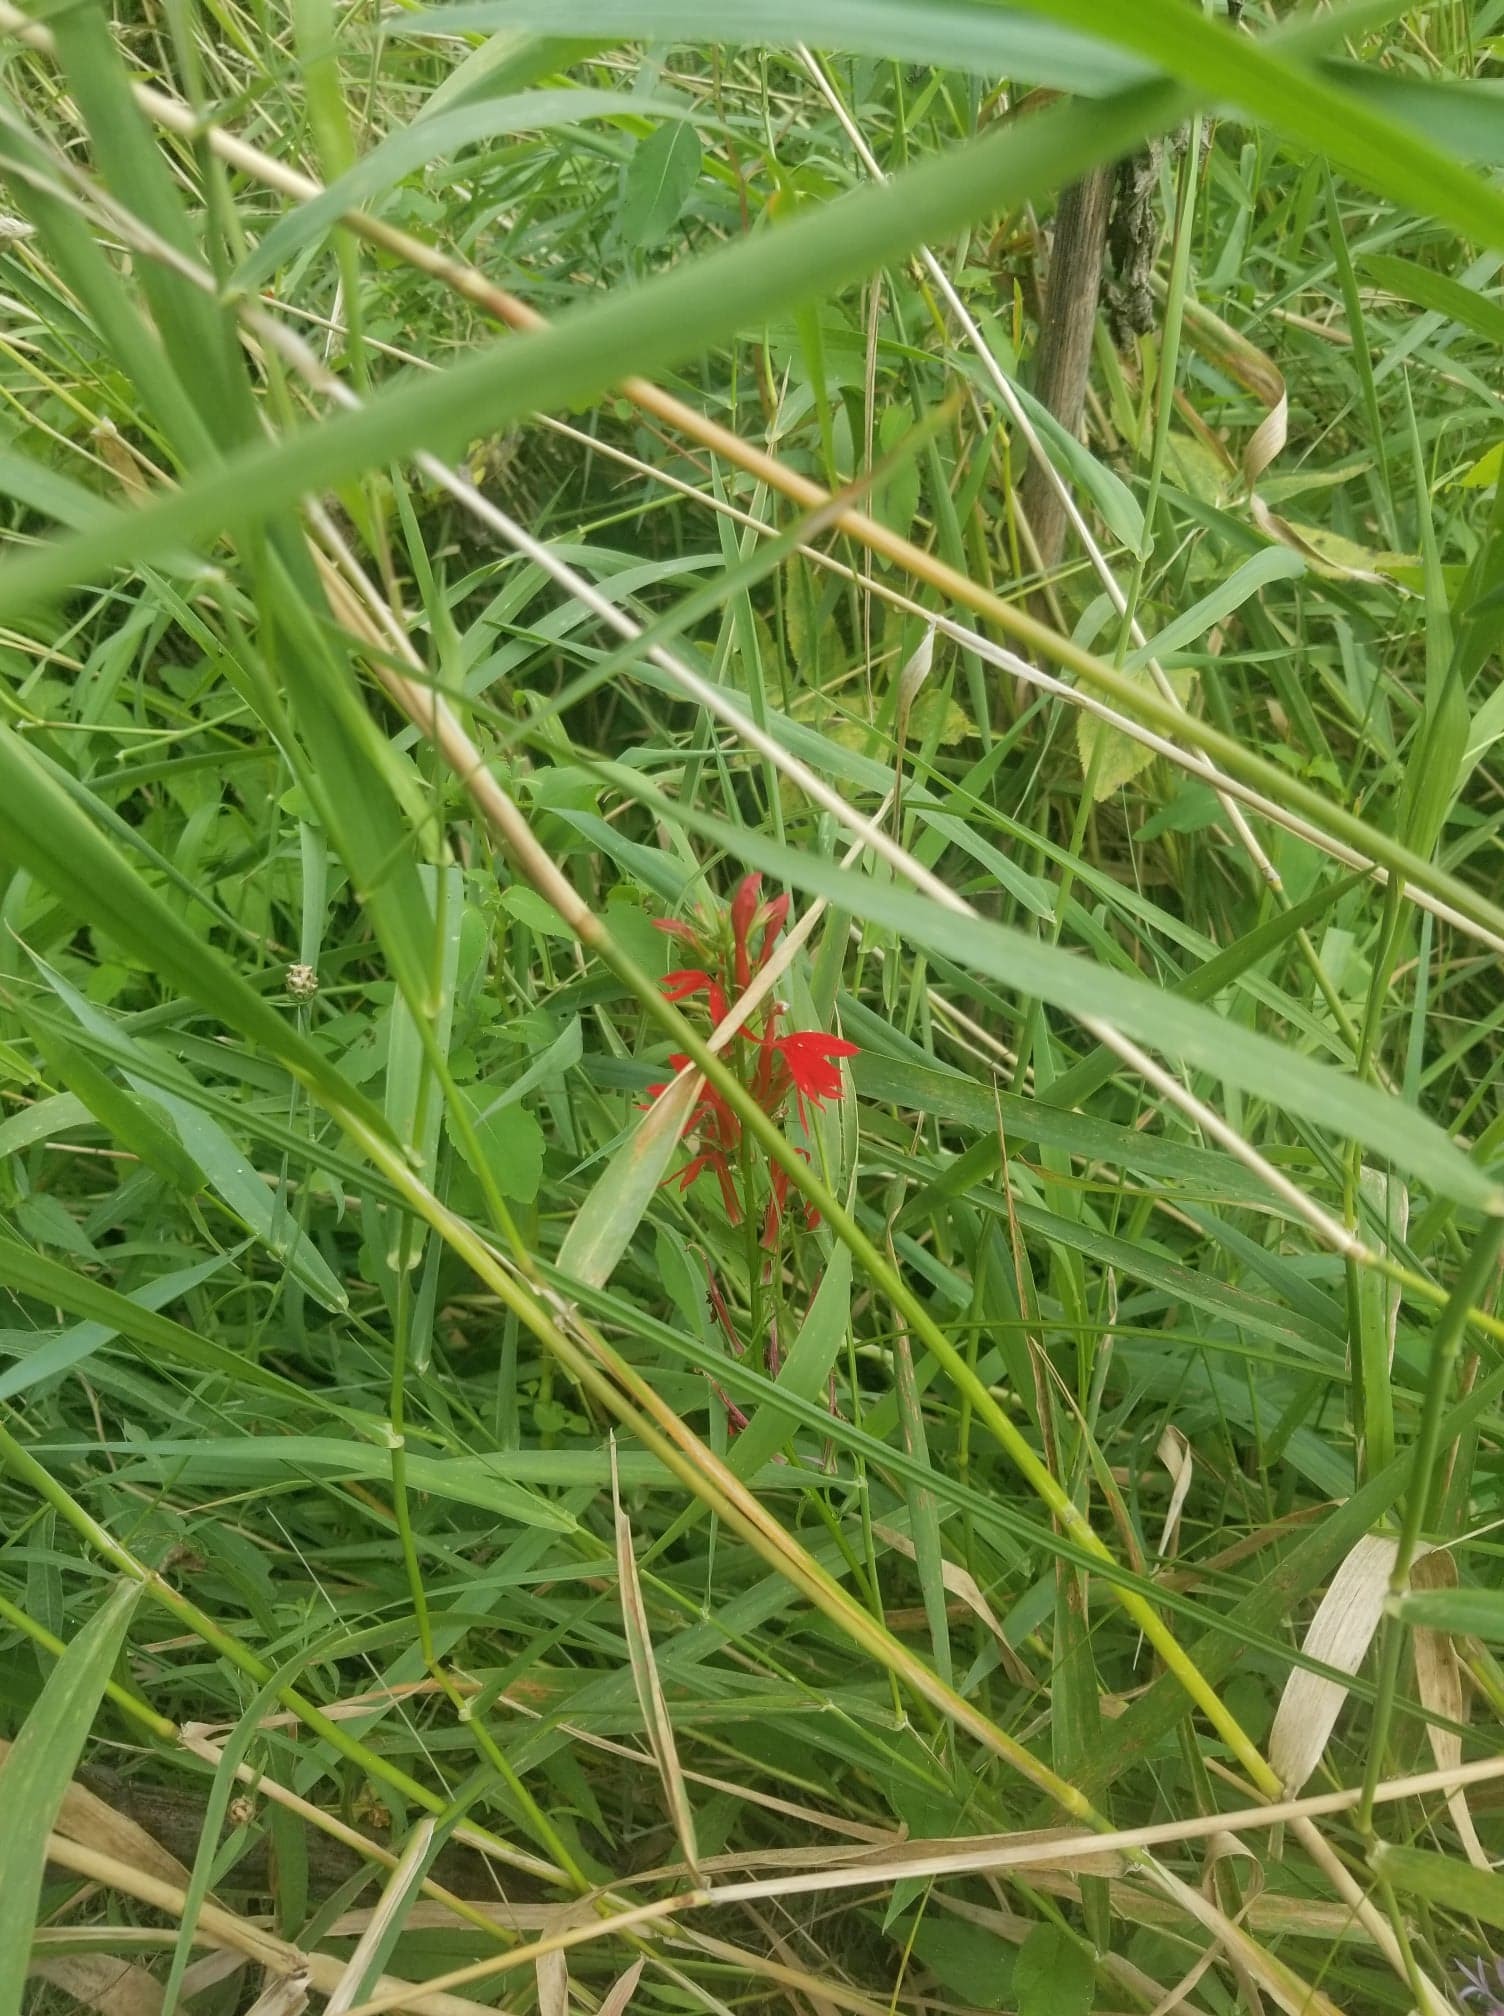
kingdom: Plantae
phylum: Tracheophyta
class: Magnoliopsida
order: Asterales
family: Campanulaceae
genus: Lobelia
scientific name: Lobelia cardinalis
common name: Cardinal flower
